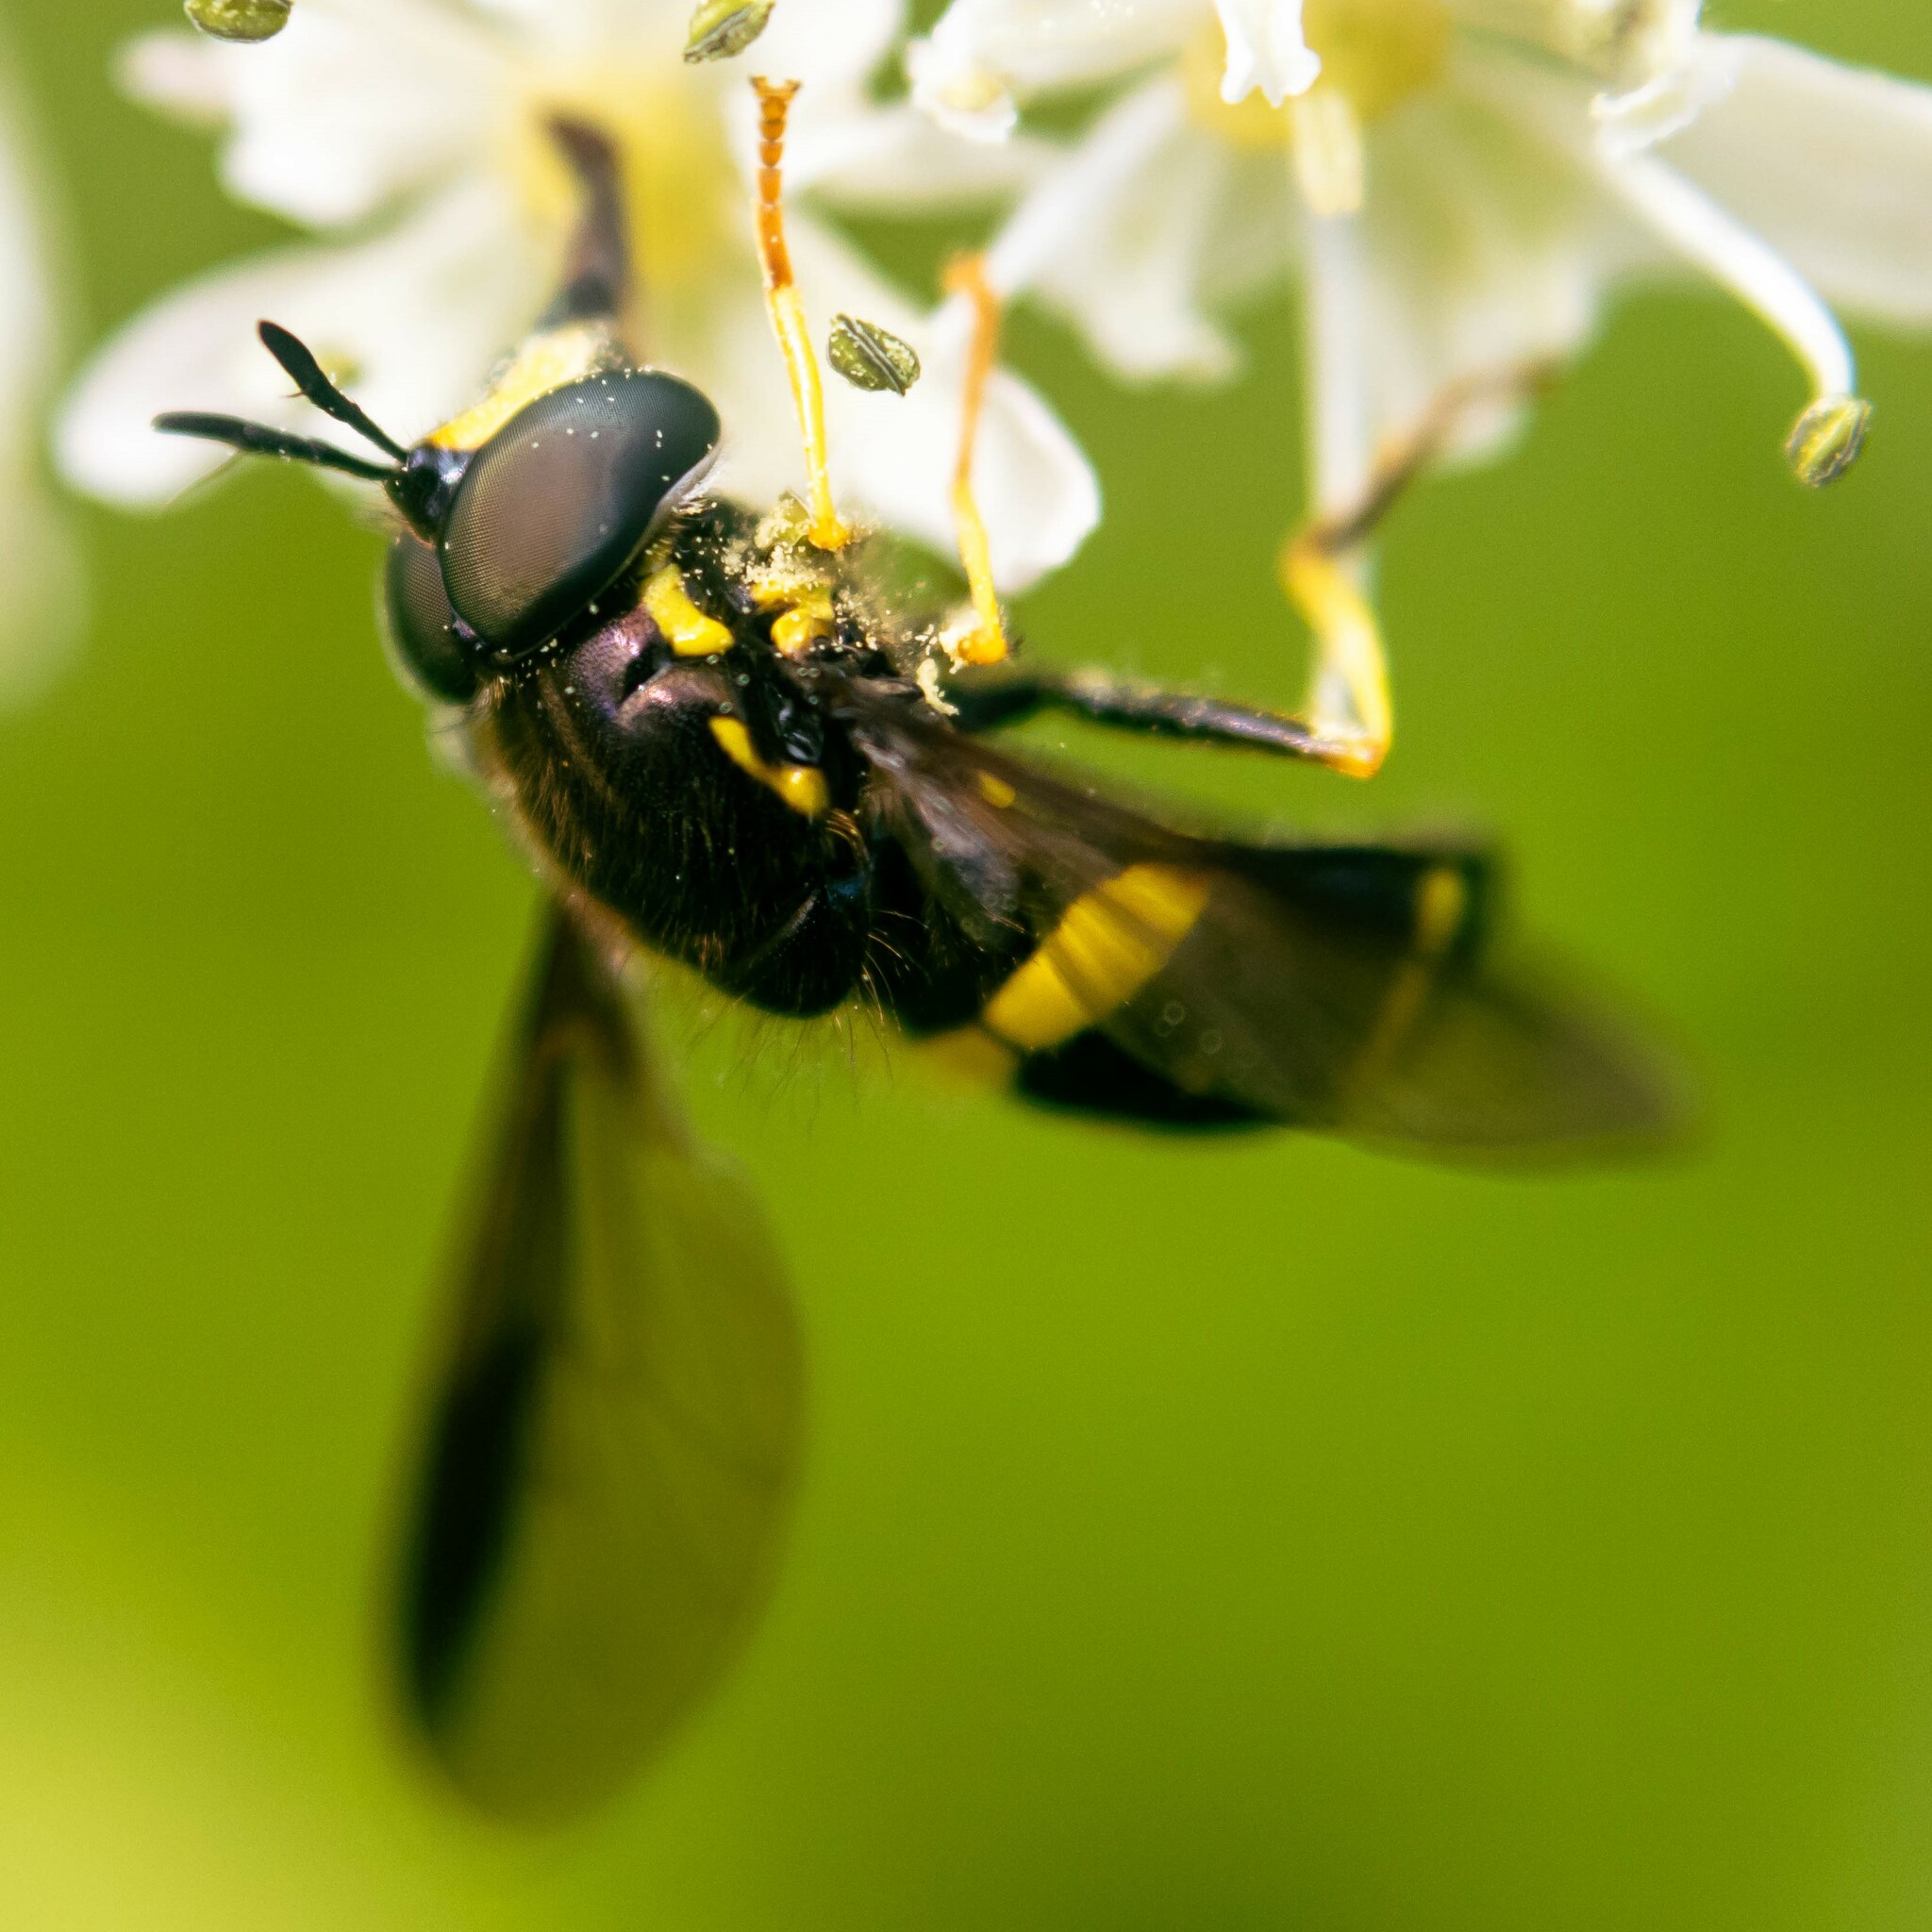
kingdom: Animalia
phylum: Arthropoda
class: Insecta
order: Diptera
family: Syrphidae
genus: Chrysotoxum
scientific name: Chrysotoxum bicincta
